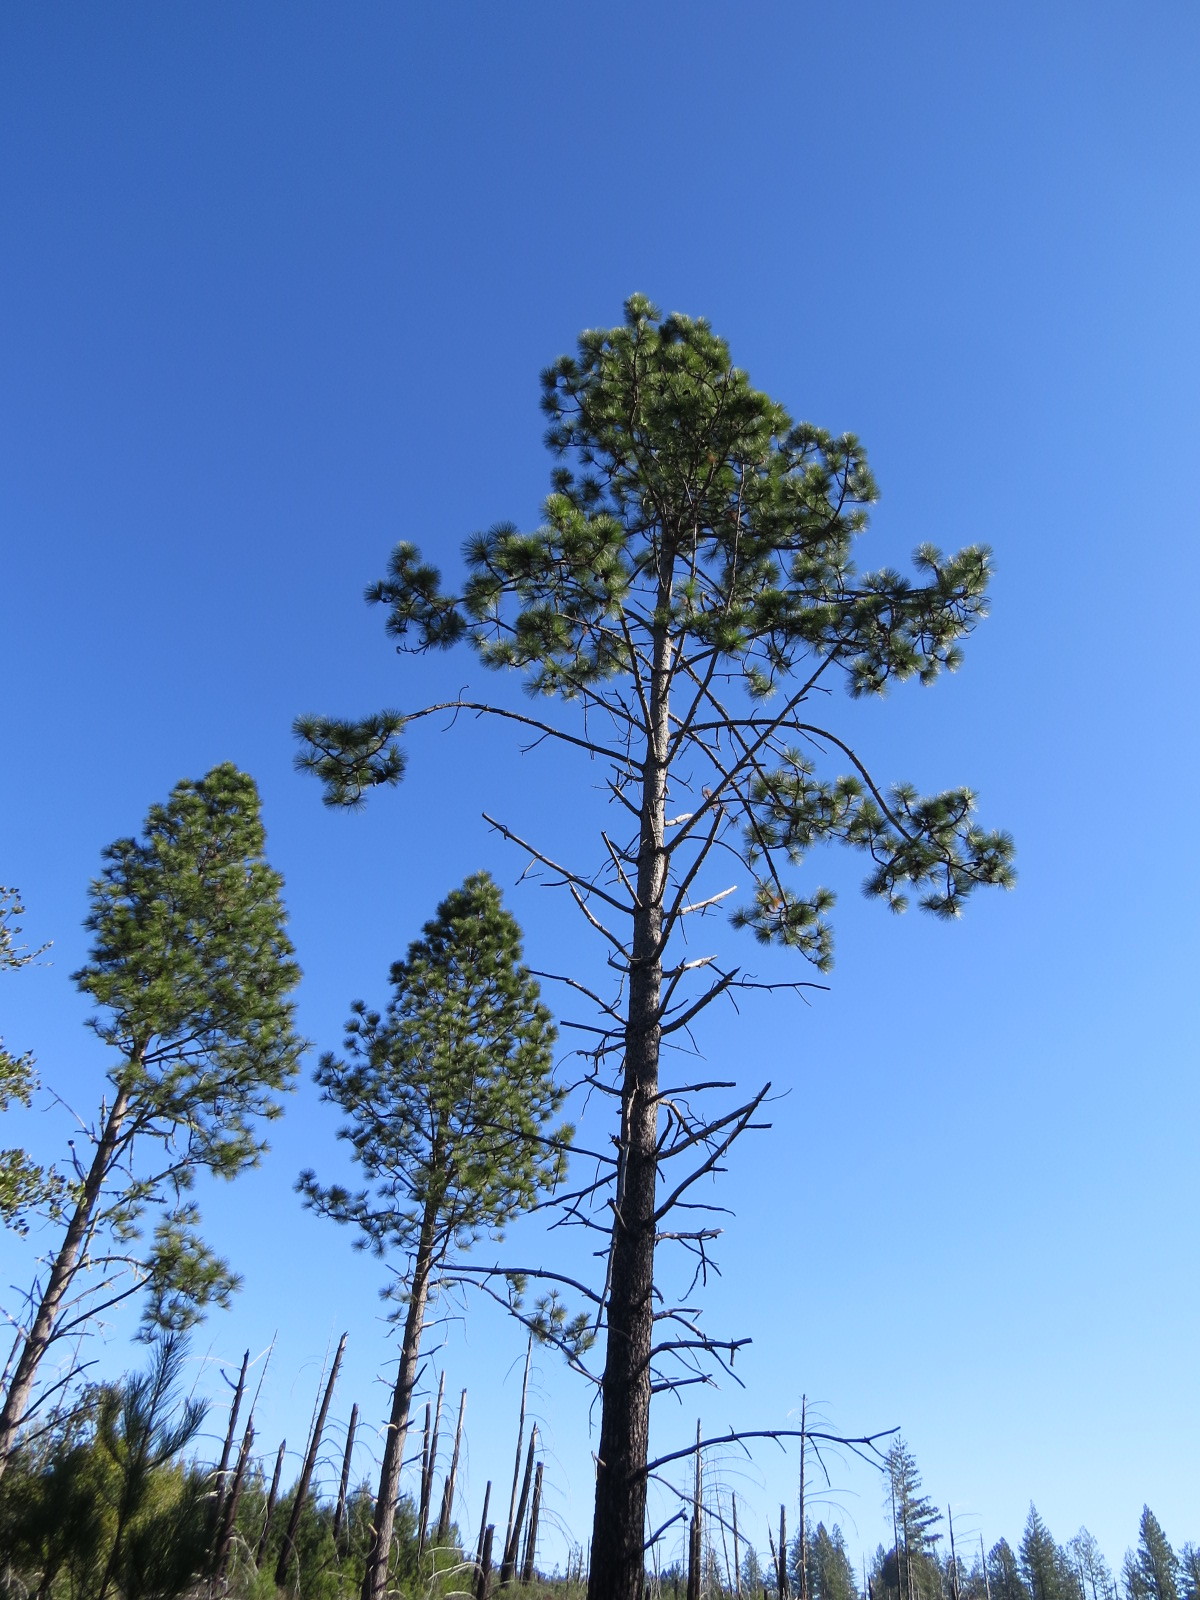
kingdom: Plantae
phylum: Tracheophyta
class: Pinopsida
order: Pinales
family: Pinaceae
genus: Pinus
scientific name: Pinus ponderosa
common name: Western yellow-pine
